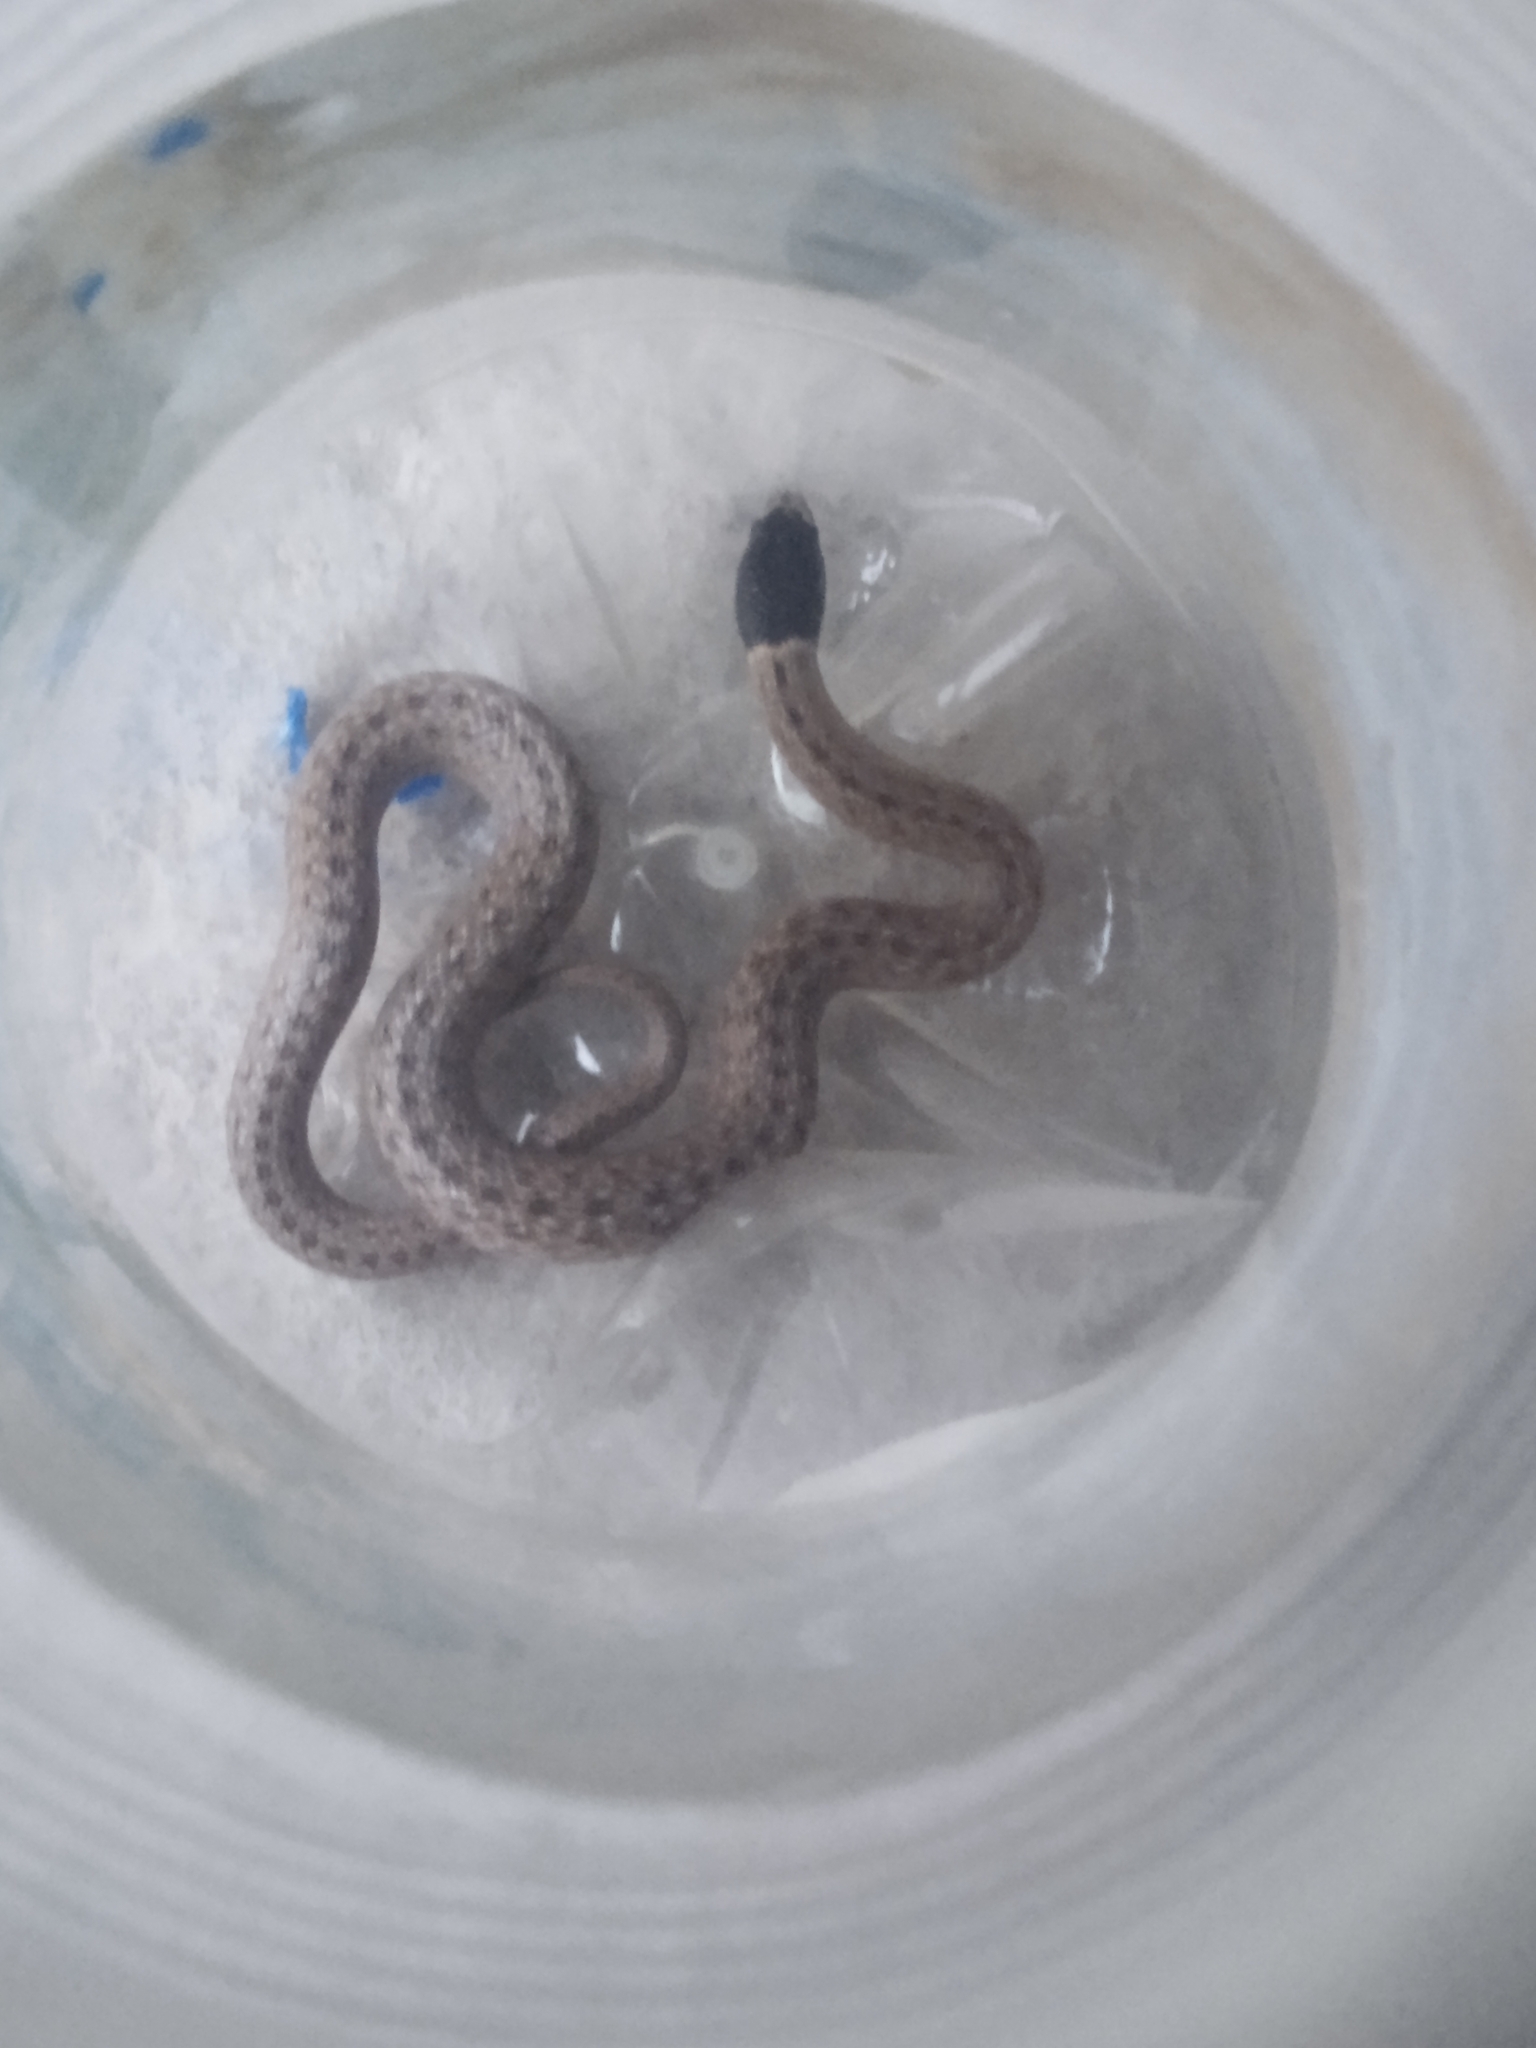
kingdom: Animalia
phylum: Chordata
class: Squamata
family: Colubridae
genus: Macroprotodon
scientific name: Macroprotodon brevis
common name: Iberian false smooth snake
